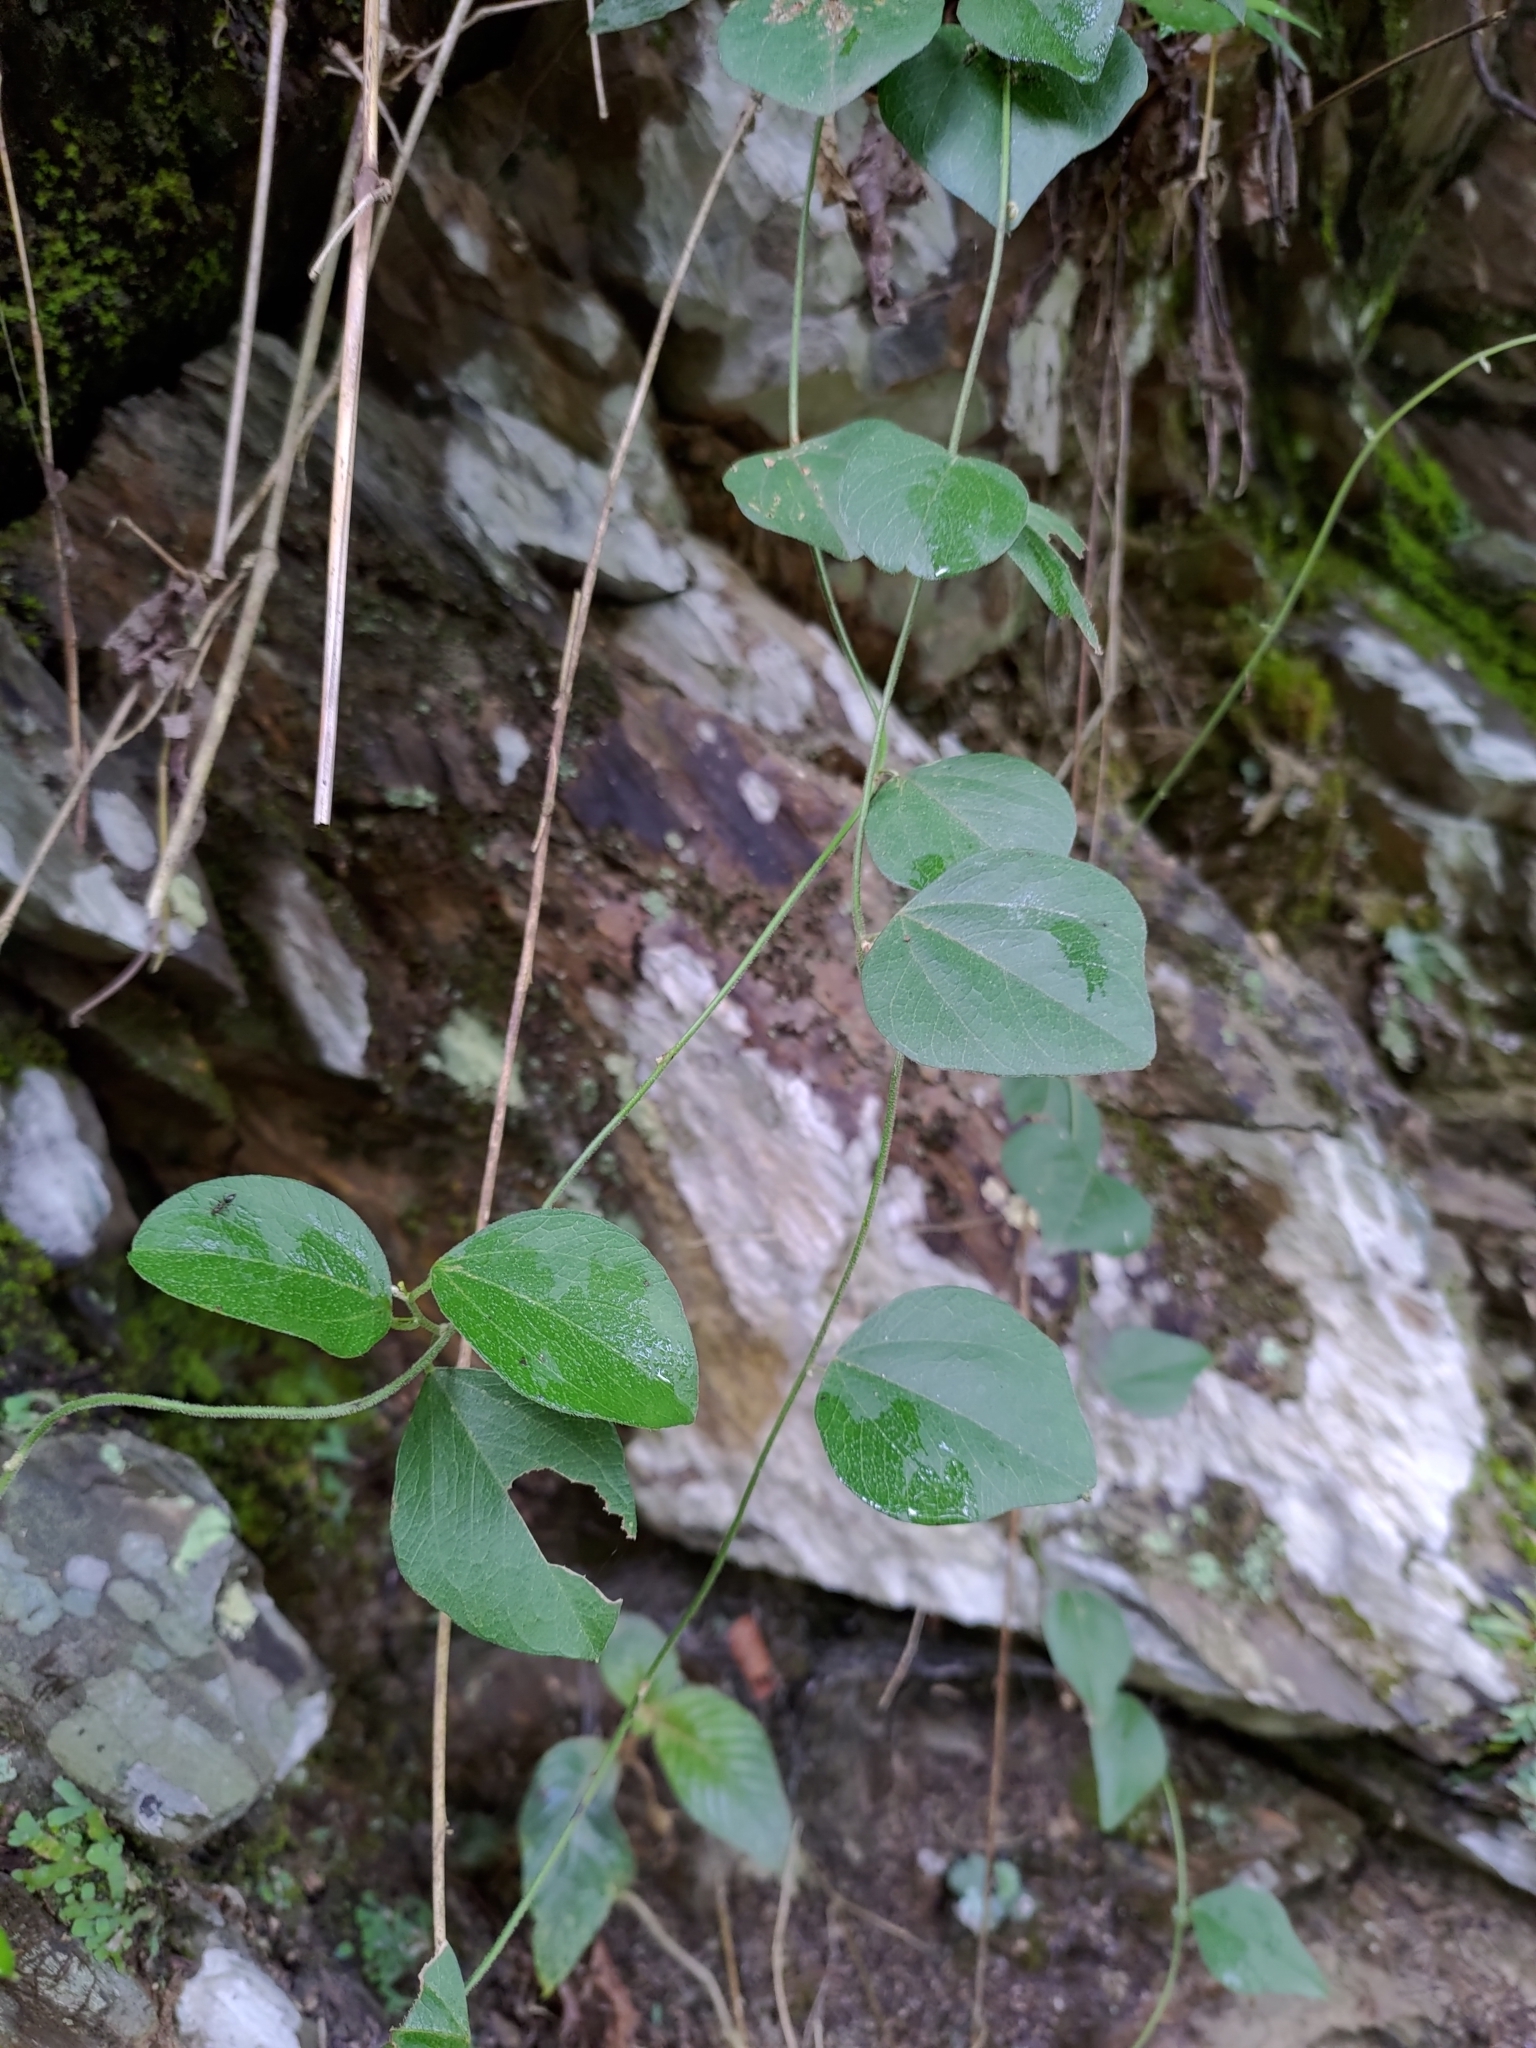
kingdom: Plantae
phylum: Tracheophyta
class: Magnoliopsida
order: Ranunculales
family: Menispermaceae
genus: Stephania
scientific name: Stephania japonica
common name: Snake vine
